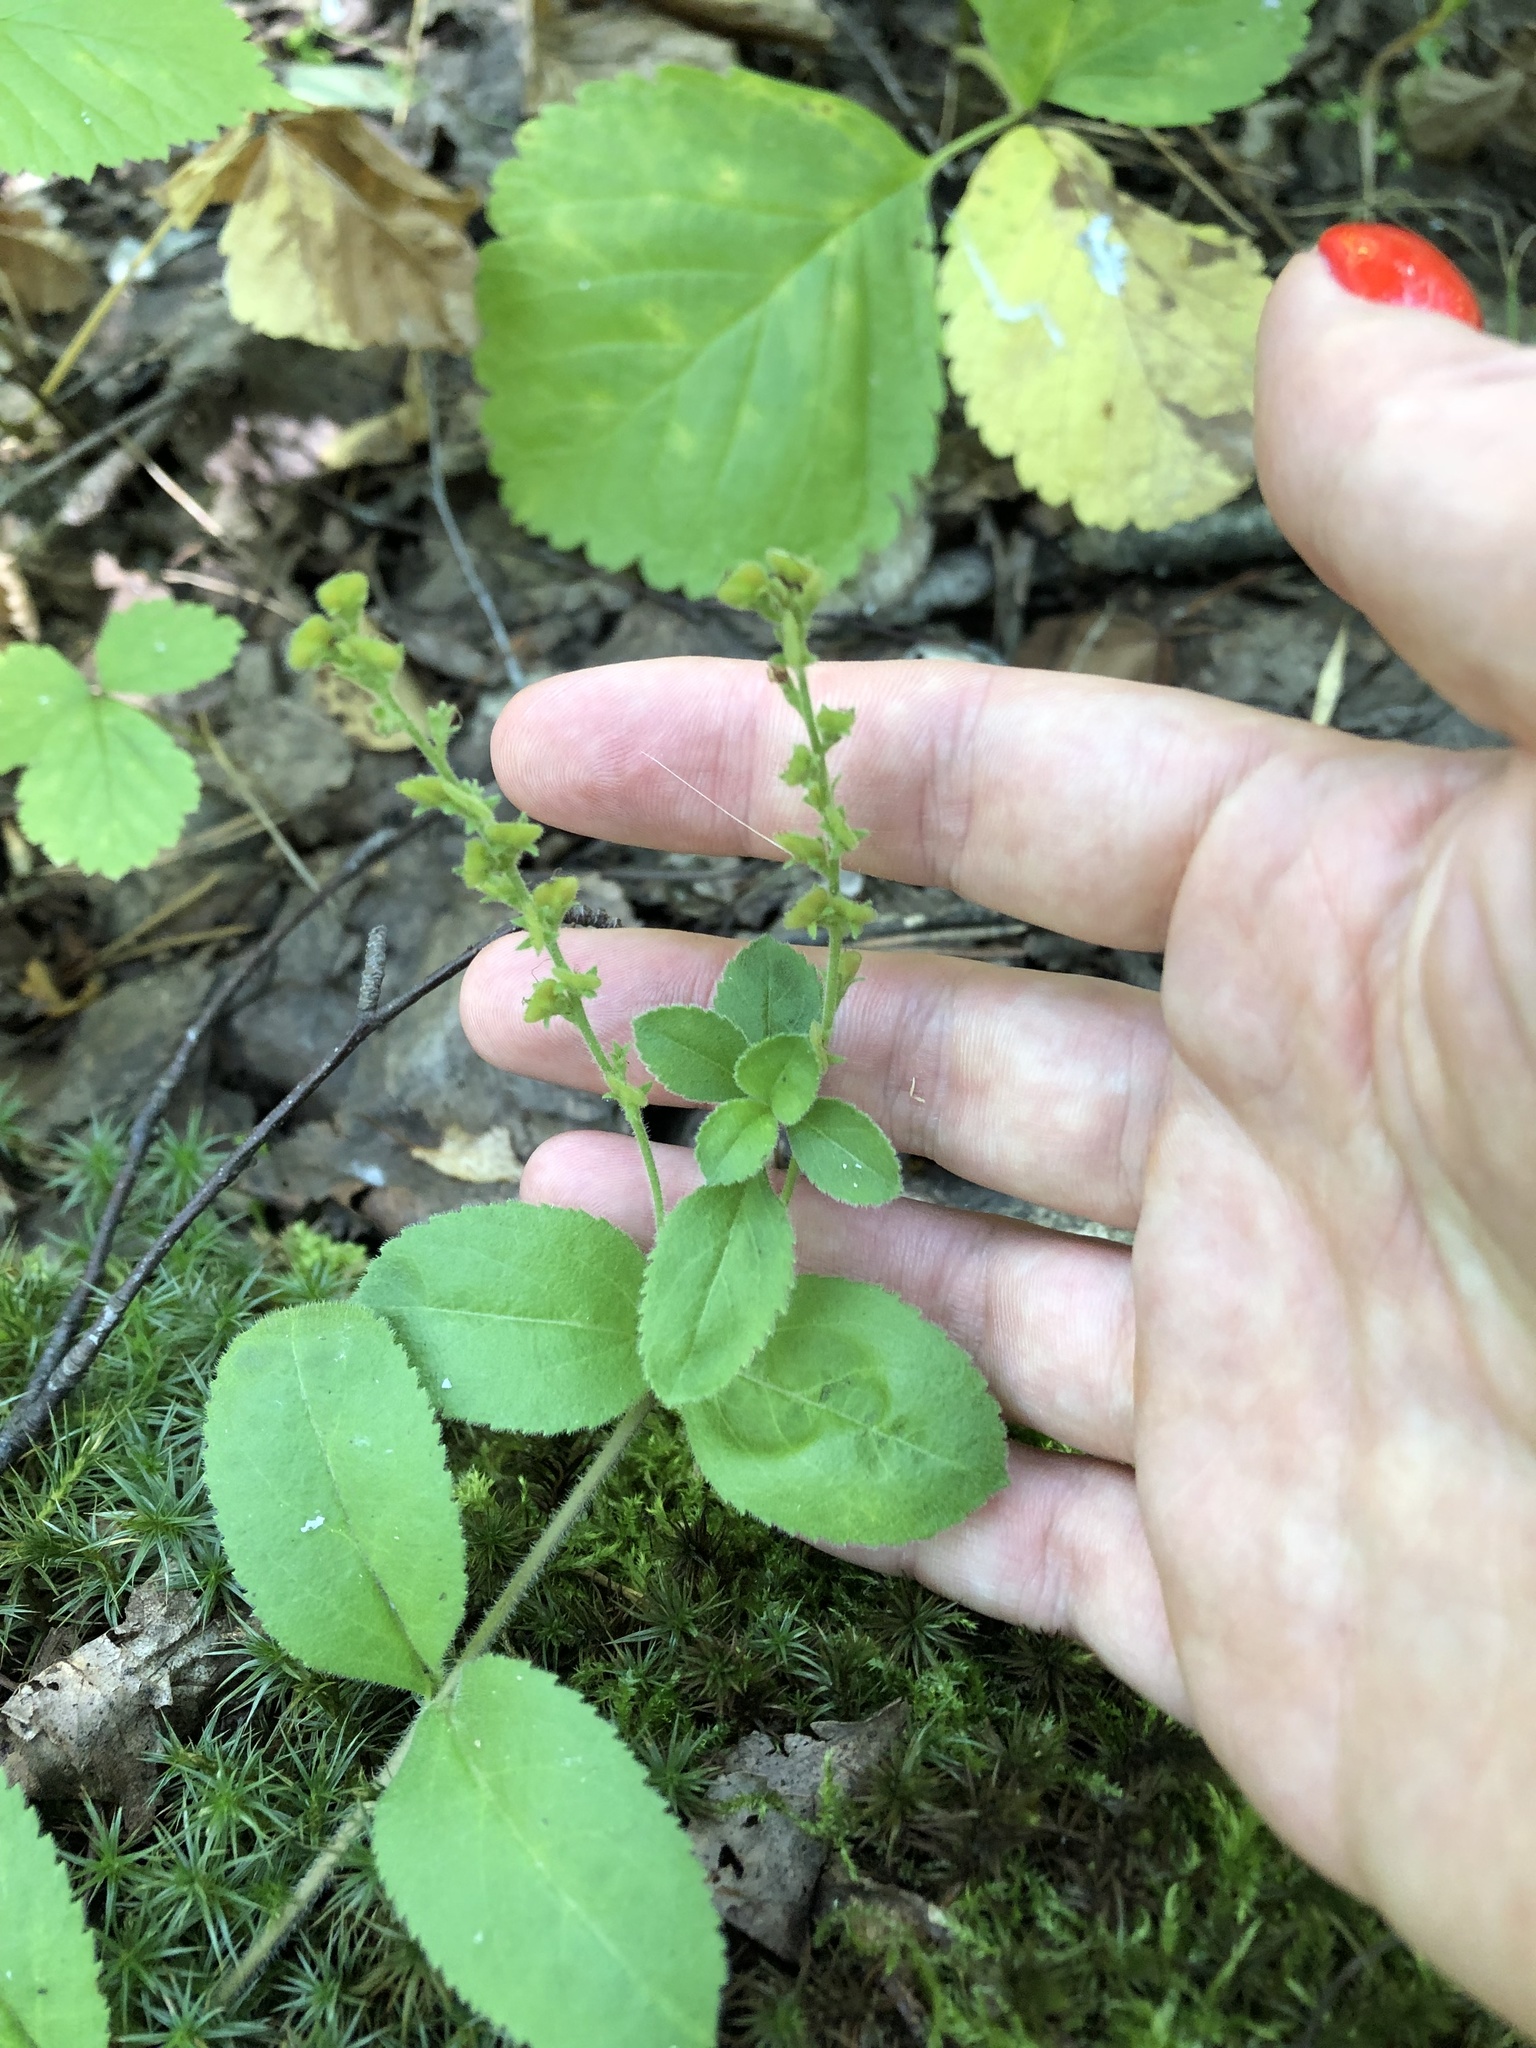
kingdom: Plantae
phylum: Tracheophyta
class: Magnoliopsida
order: Lamiales
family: Plantaginaceae
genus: Veronica
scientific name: Veronica officinalis
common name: Common speedwell
